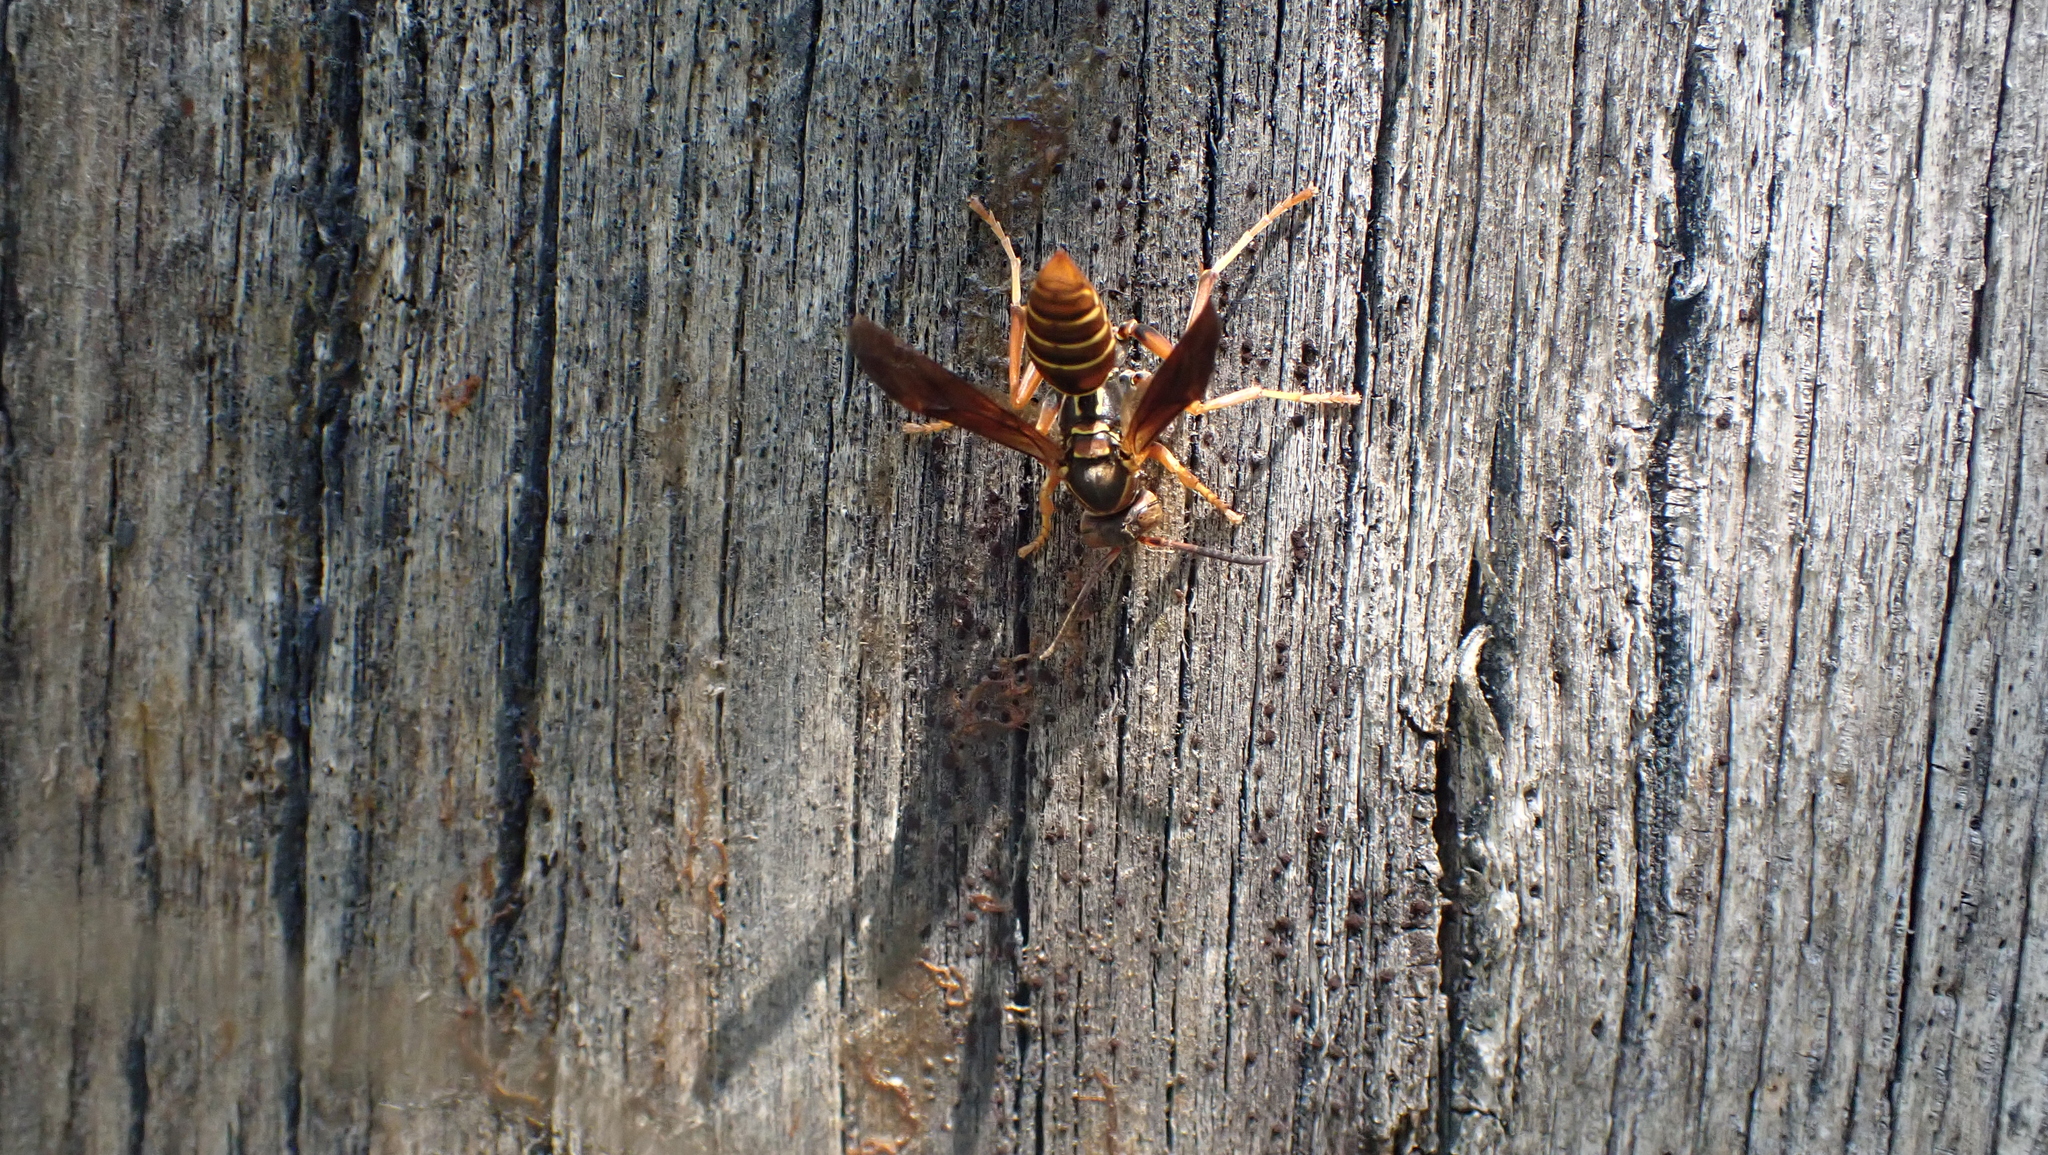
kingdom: Animalia
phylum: Arthropoda
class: Insecta
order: Hymenoptera
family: Eumenidae
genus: Polistes
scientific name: Polistes fuscatus
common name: Dark paper wasp
